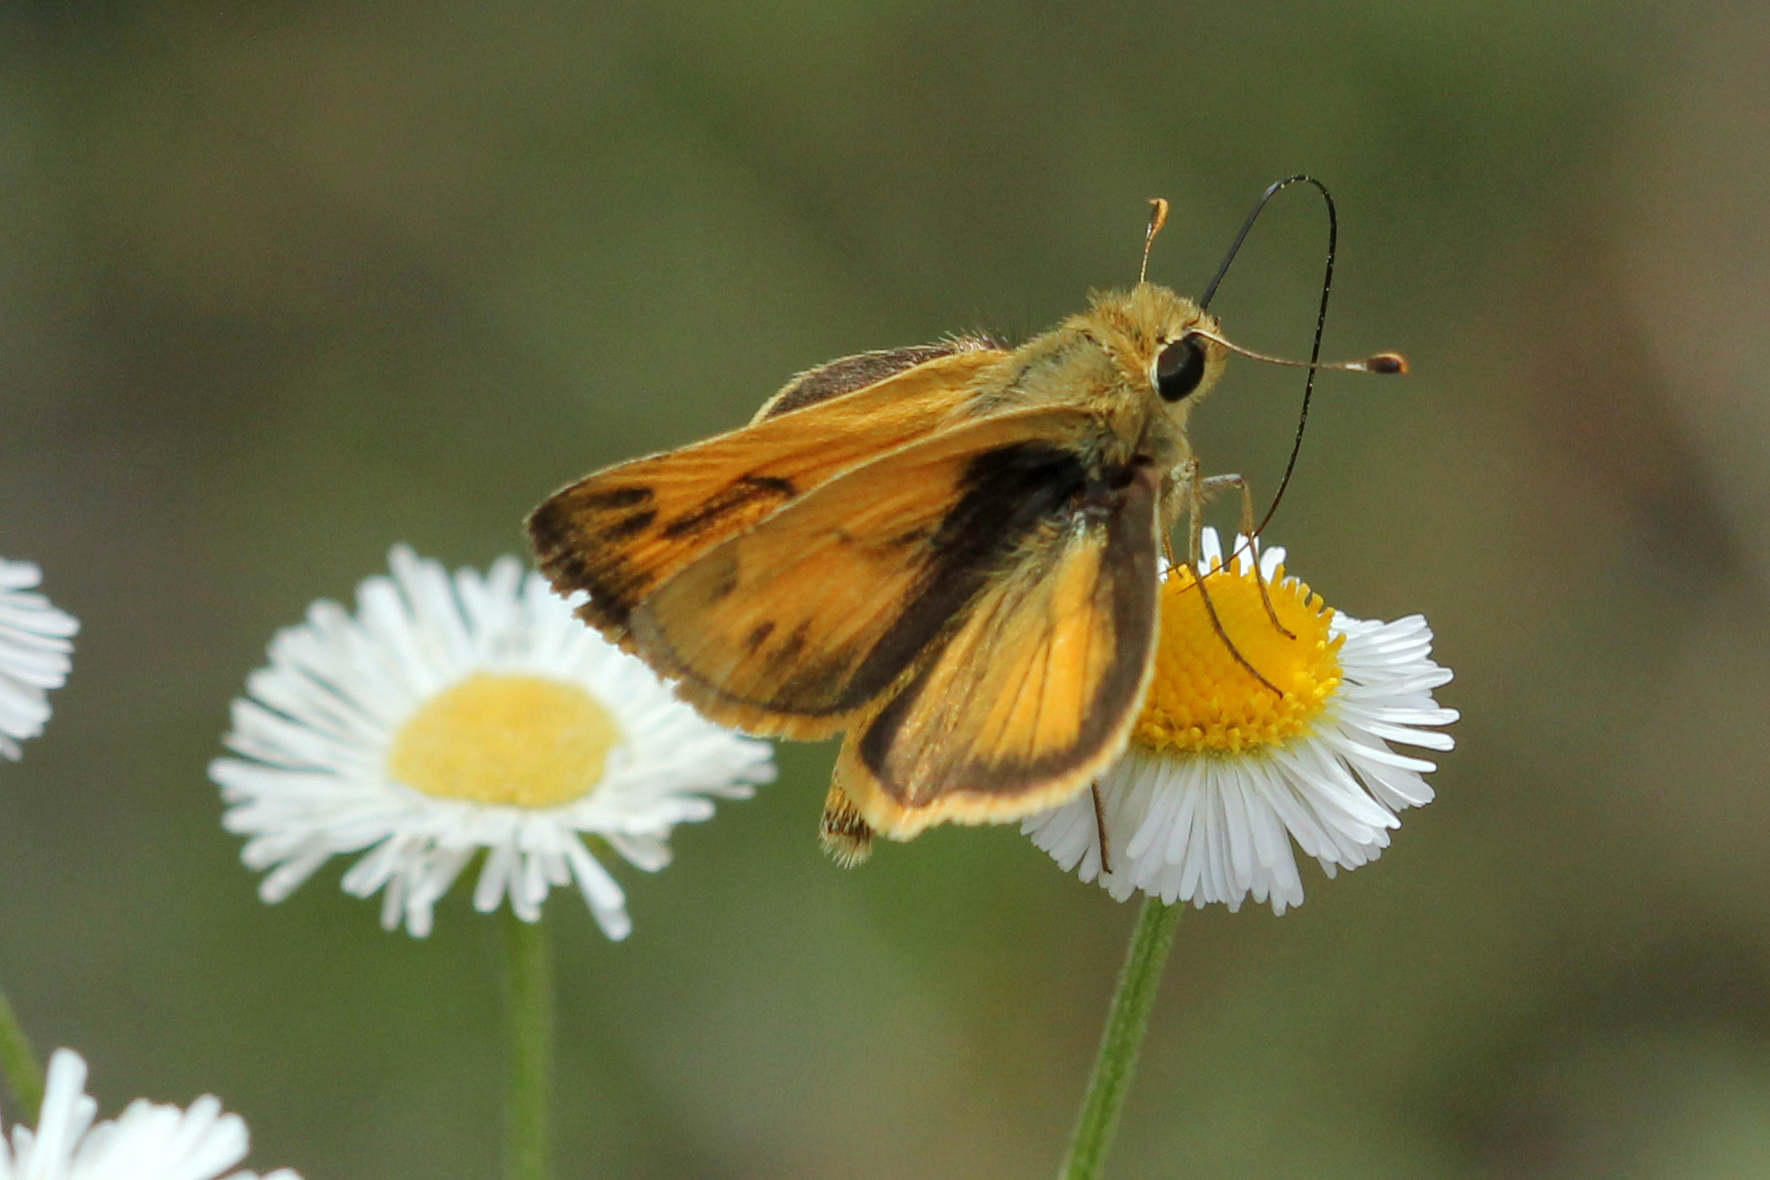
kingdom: Animalia
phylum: Arthropoda
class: Insecta
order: Lepidoptera
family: Hesperiidae
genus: Polites
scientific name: Polites vibex
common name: Whirlabout
